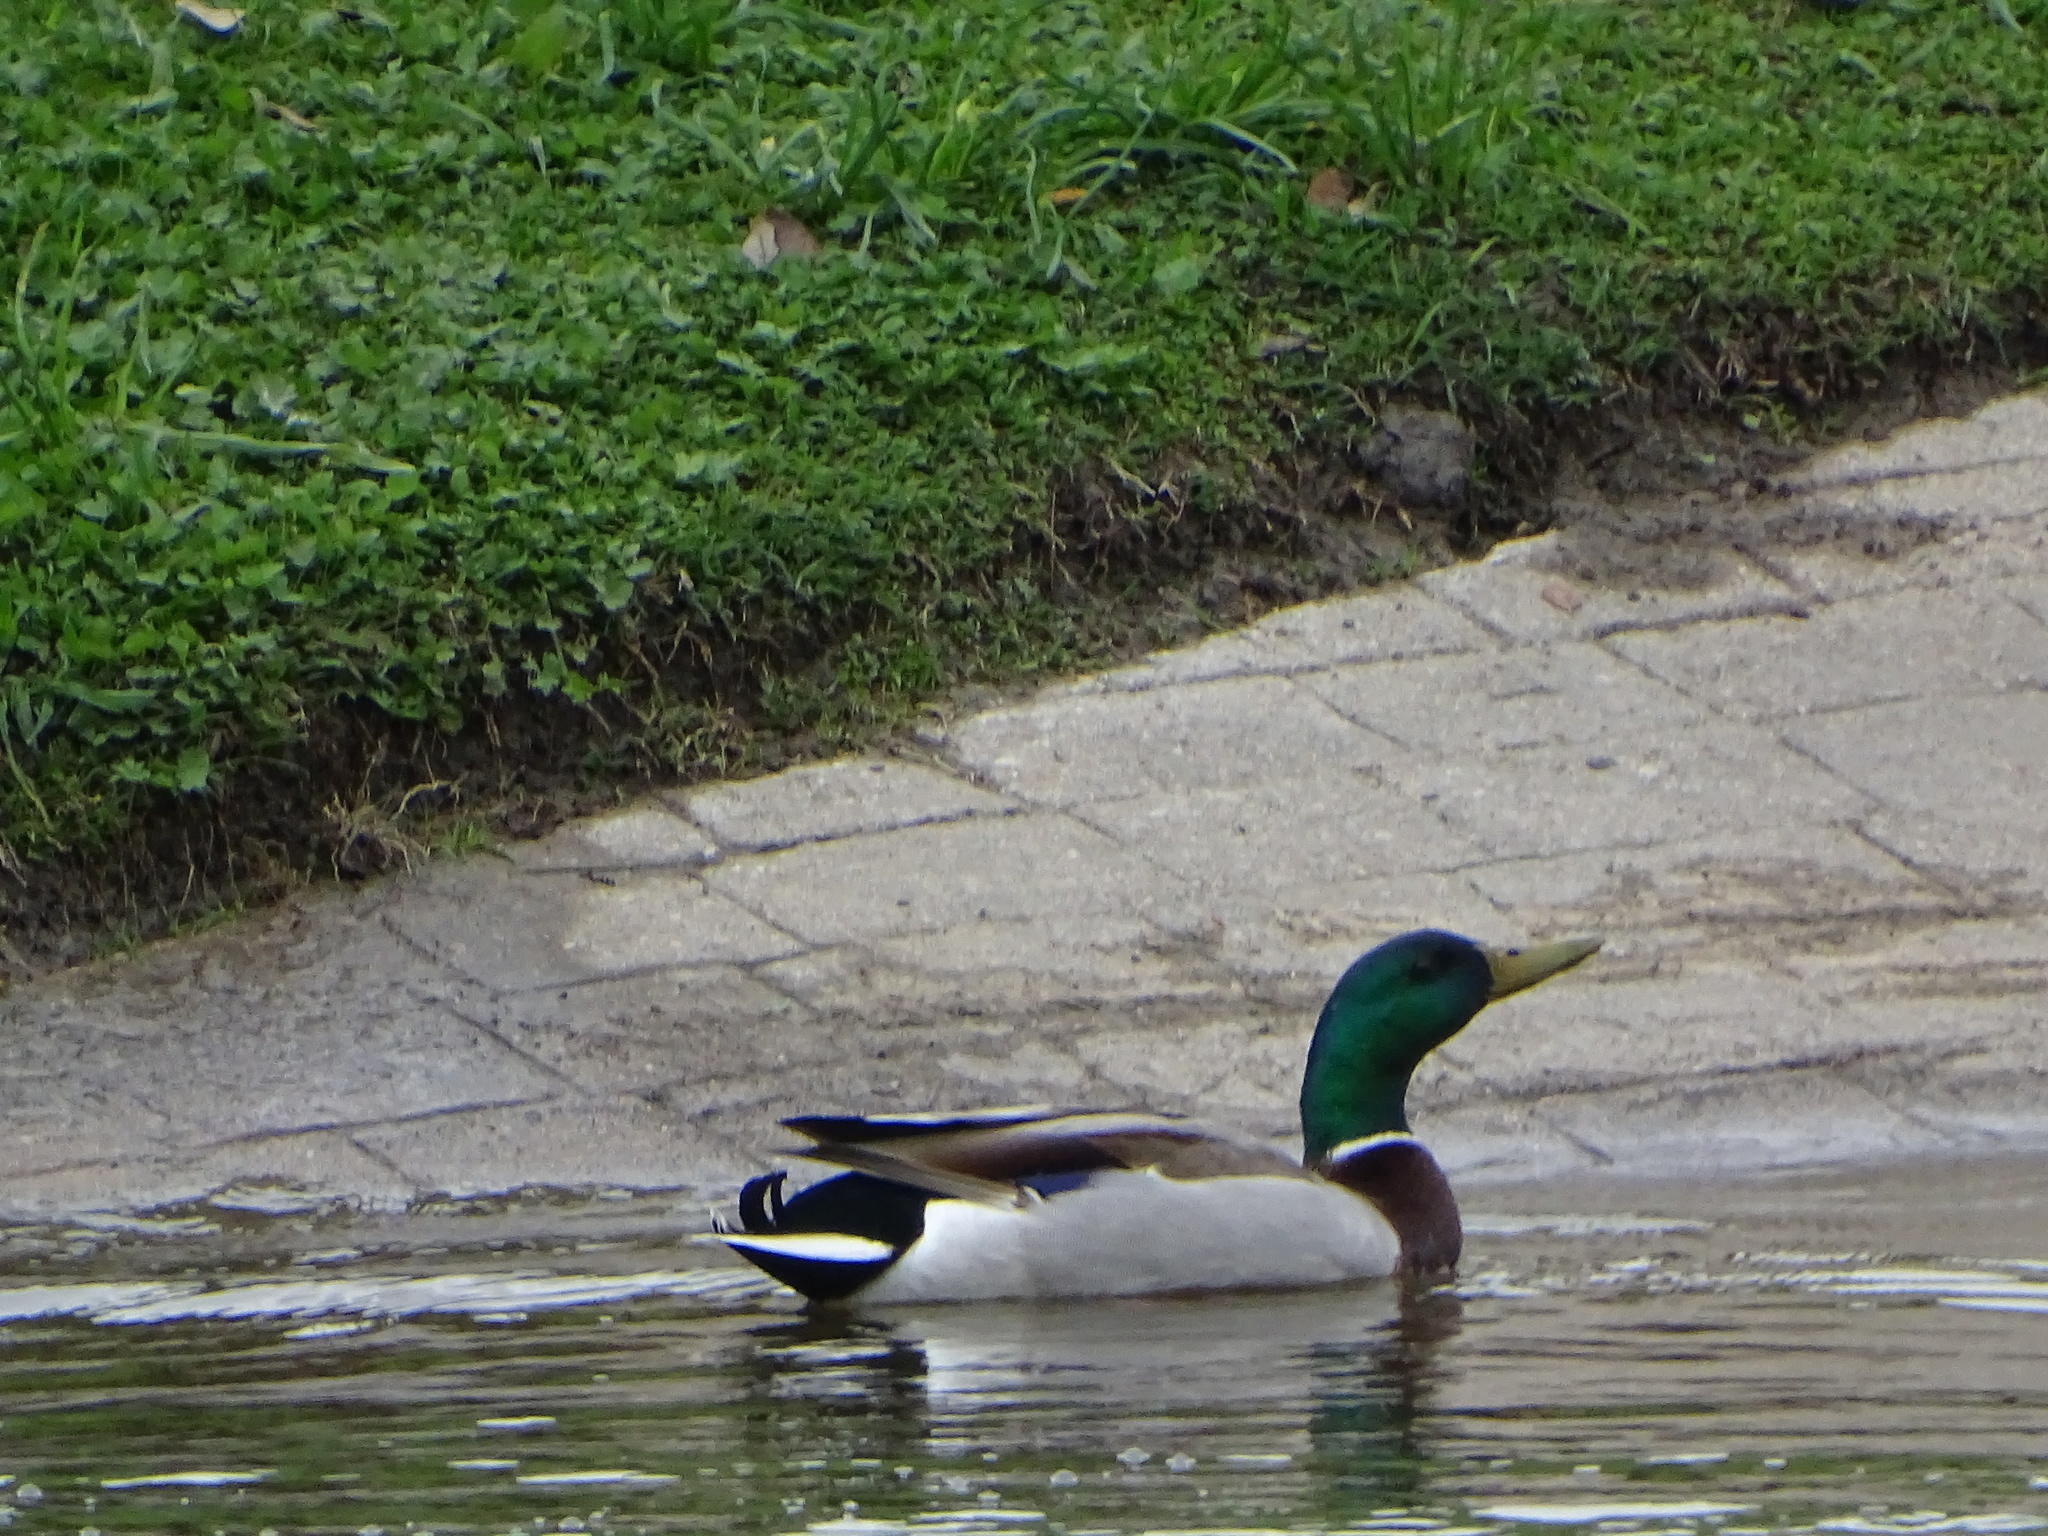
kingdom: Animalia
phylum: Chordata
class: Aves
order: Anseriformes
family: Anatidae
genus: Anas
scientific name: Anas platyrhynchos
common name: Mallard
